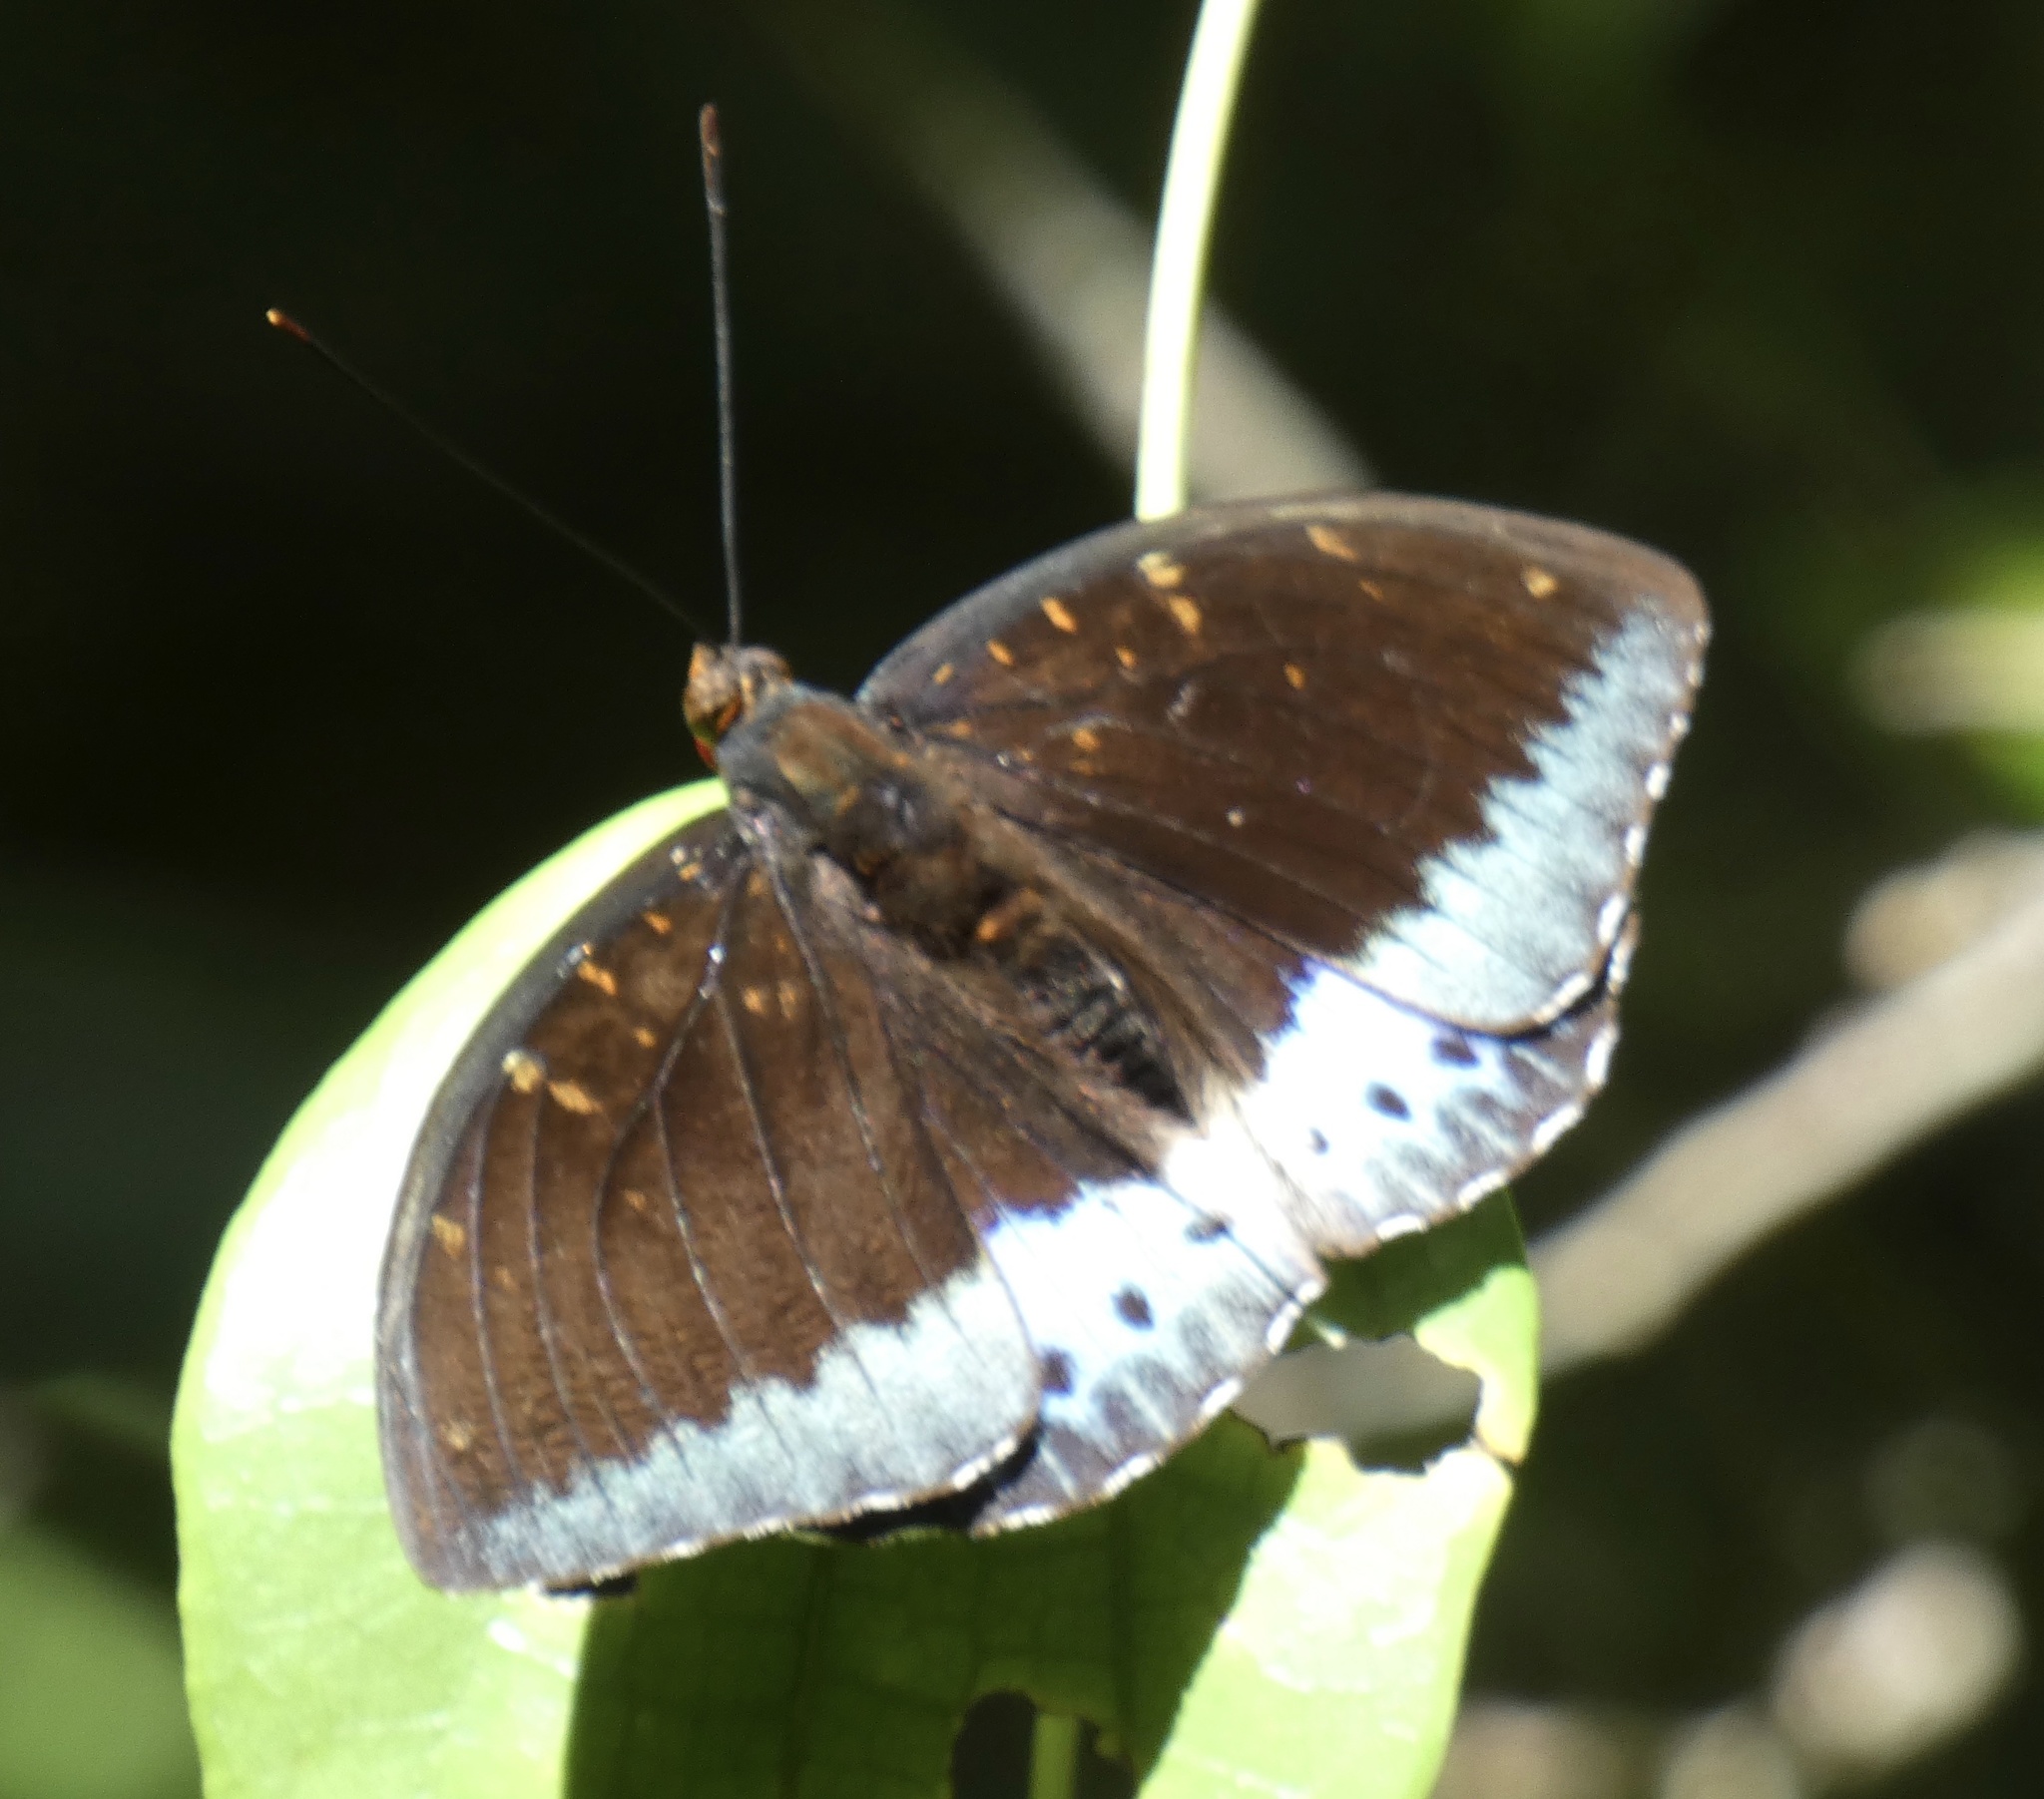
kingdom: Animalia
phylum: Arthropoda
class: Insecta
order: Lepidoptera
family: Nymphalidae
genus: Lexias
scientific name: Lexias pardalis
